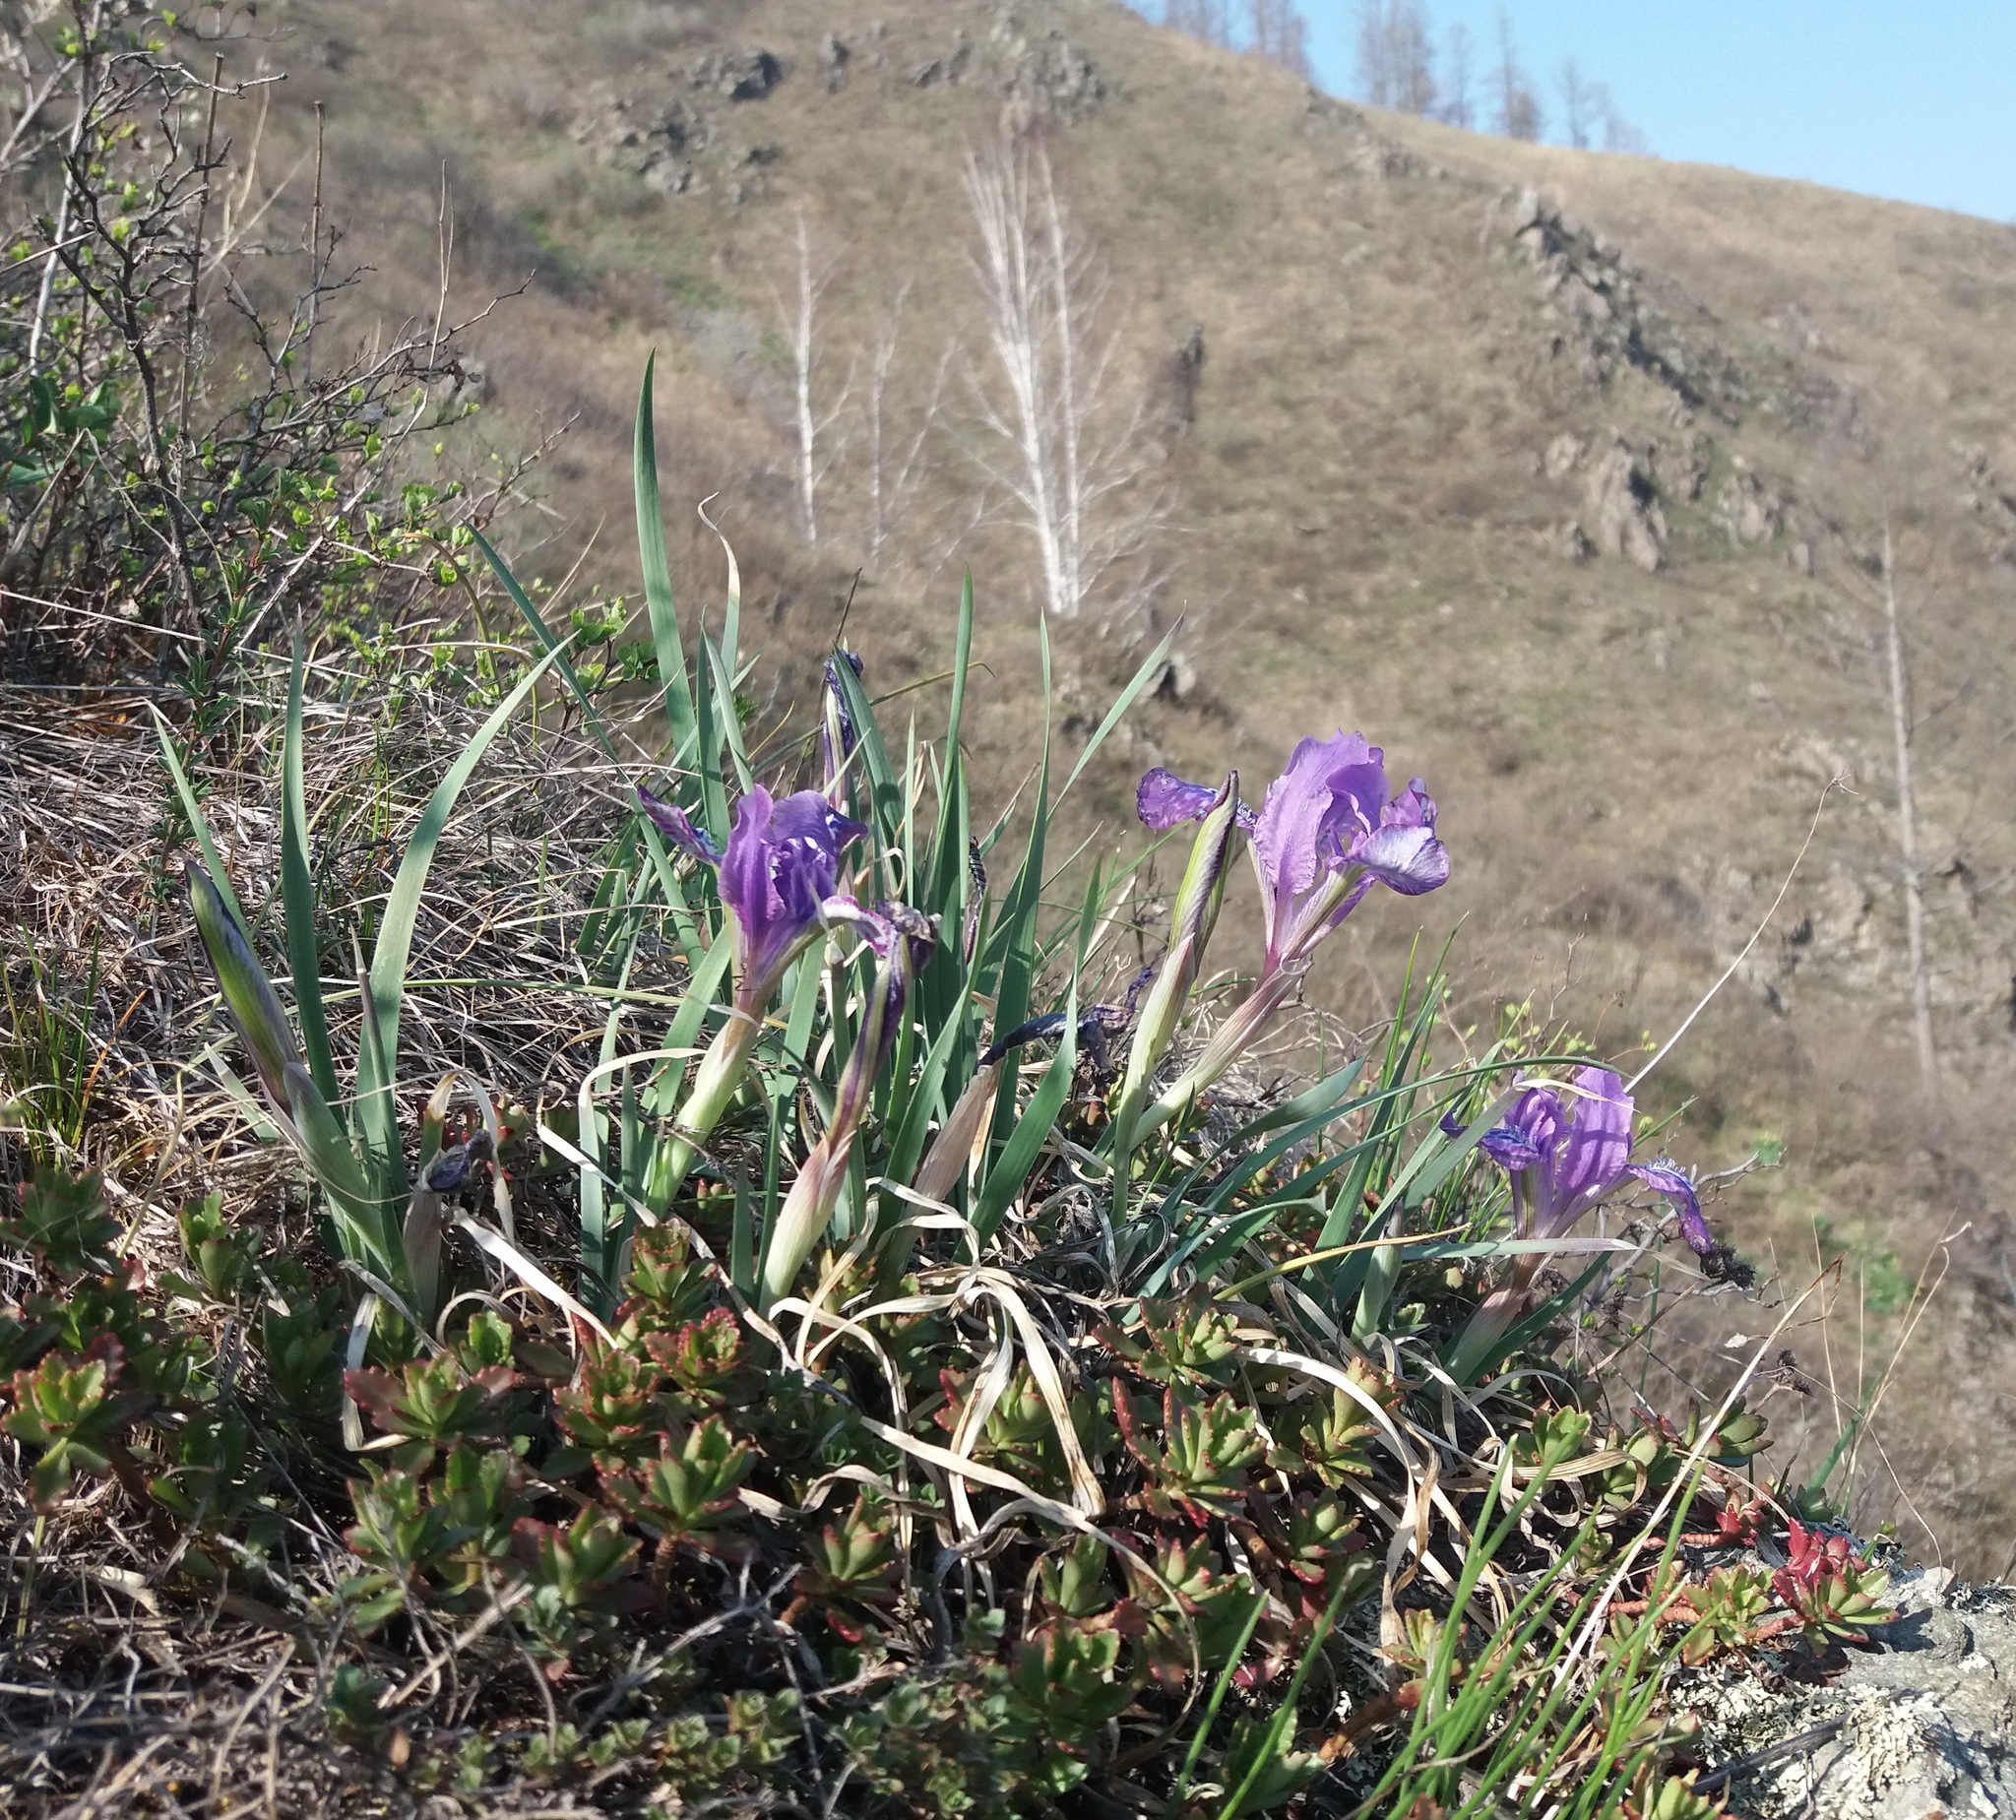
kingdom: Plantae
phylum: Tracheophyta
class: Liliopsida
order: Asparagales
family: Iridaceae
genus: Iris
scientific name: Iris tigridia
